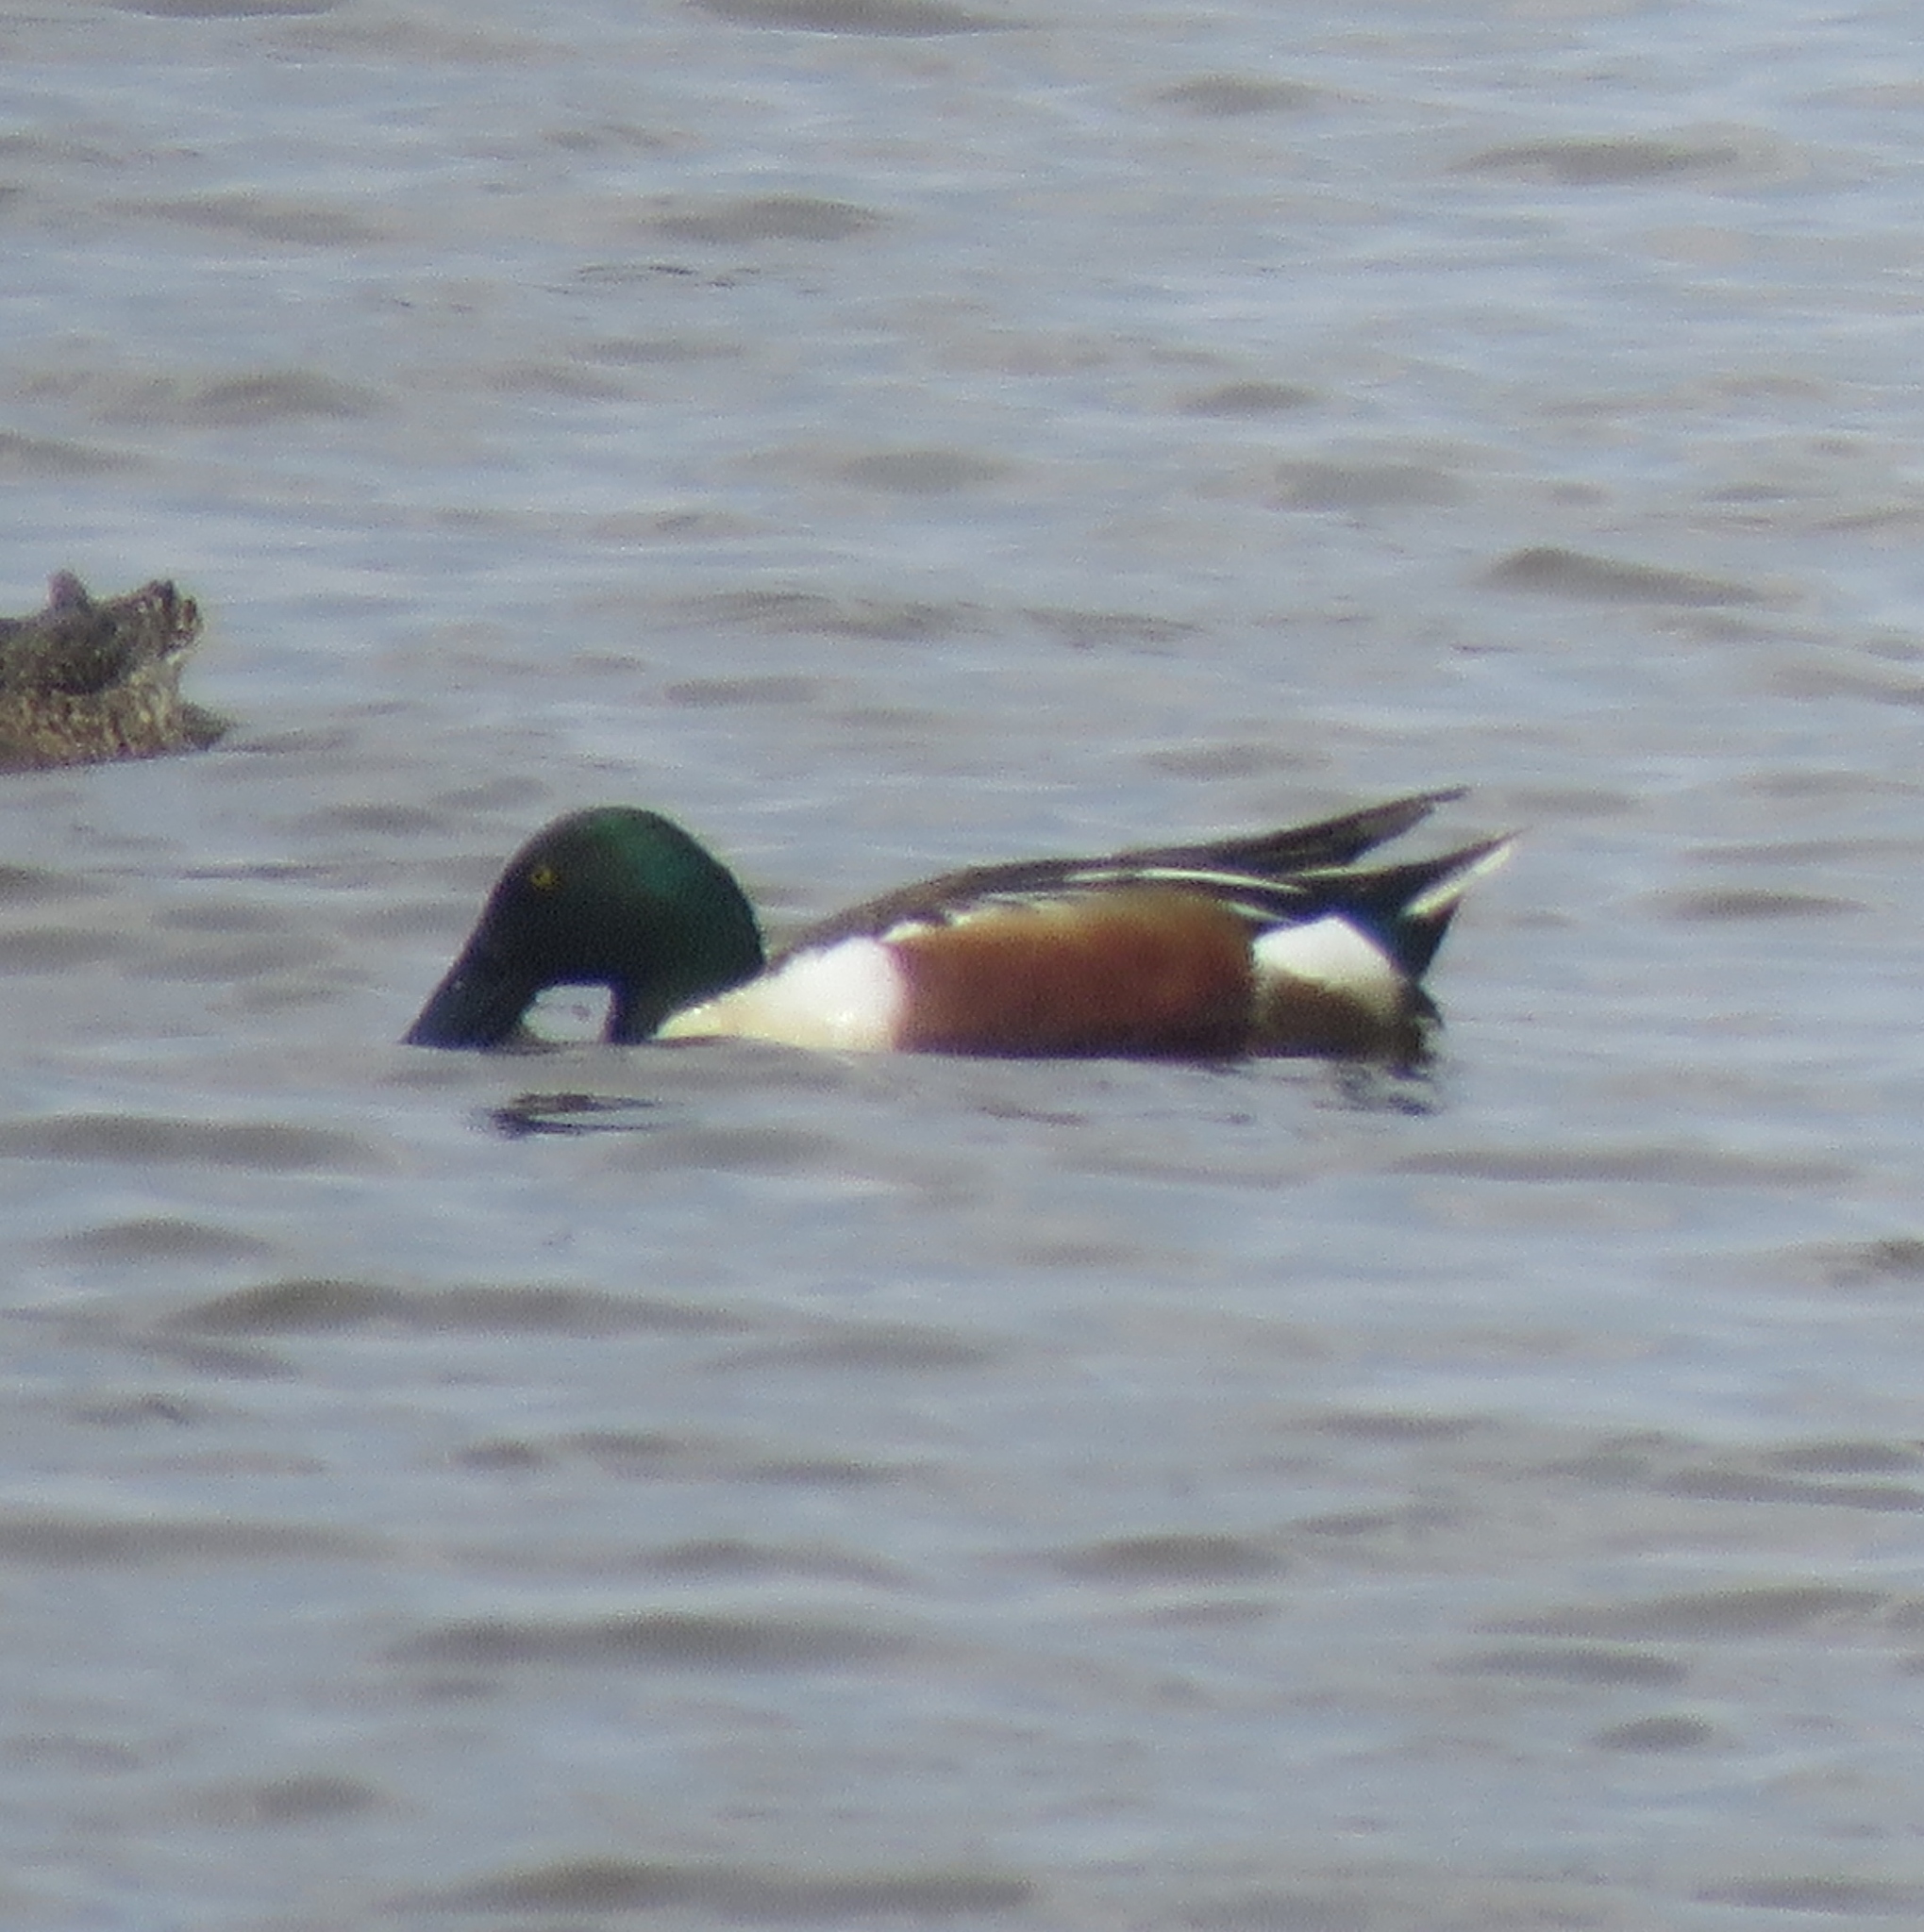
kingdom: Animalia
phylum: Chordata
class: Aves
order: Anseriformes
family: Anatidae
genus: Spatula
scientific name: Spatula clypeata
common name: Northern shoveler
